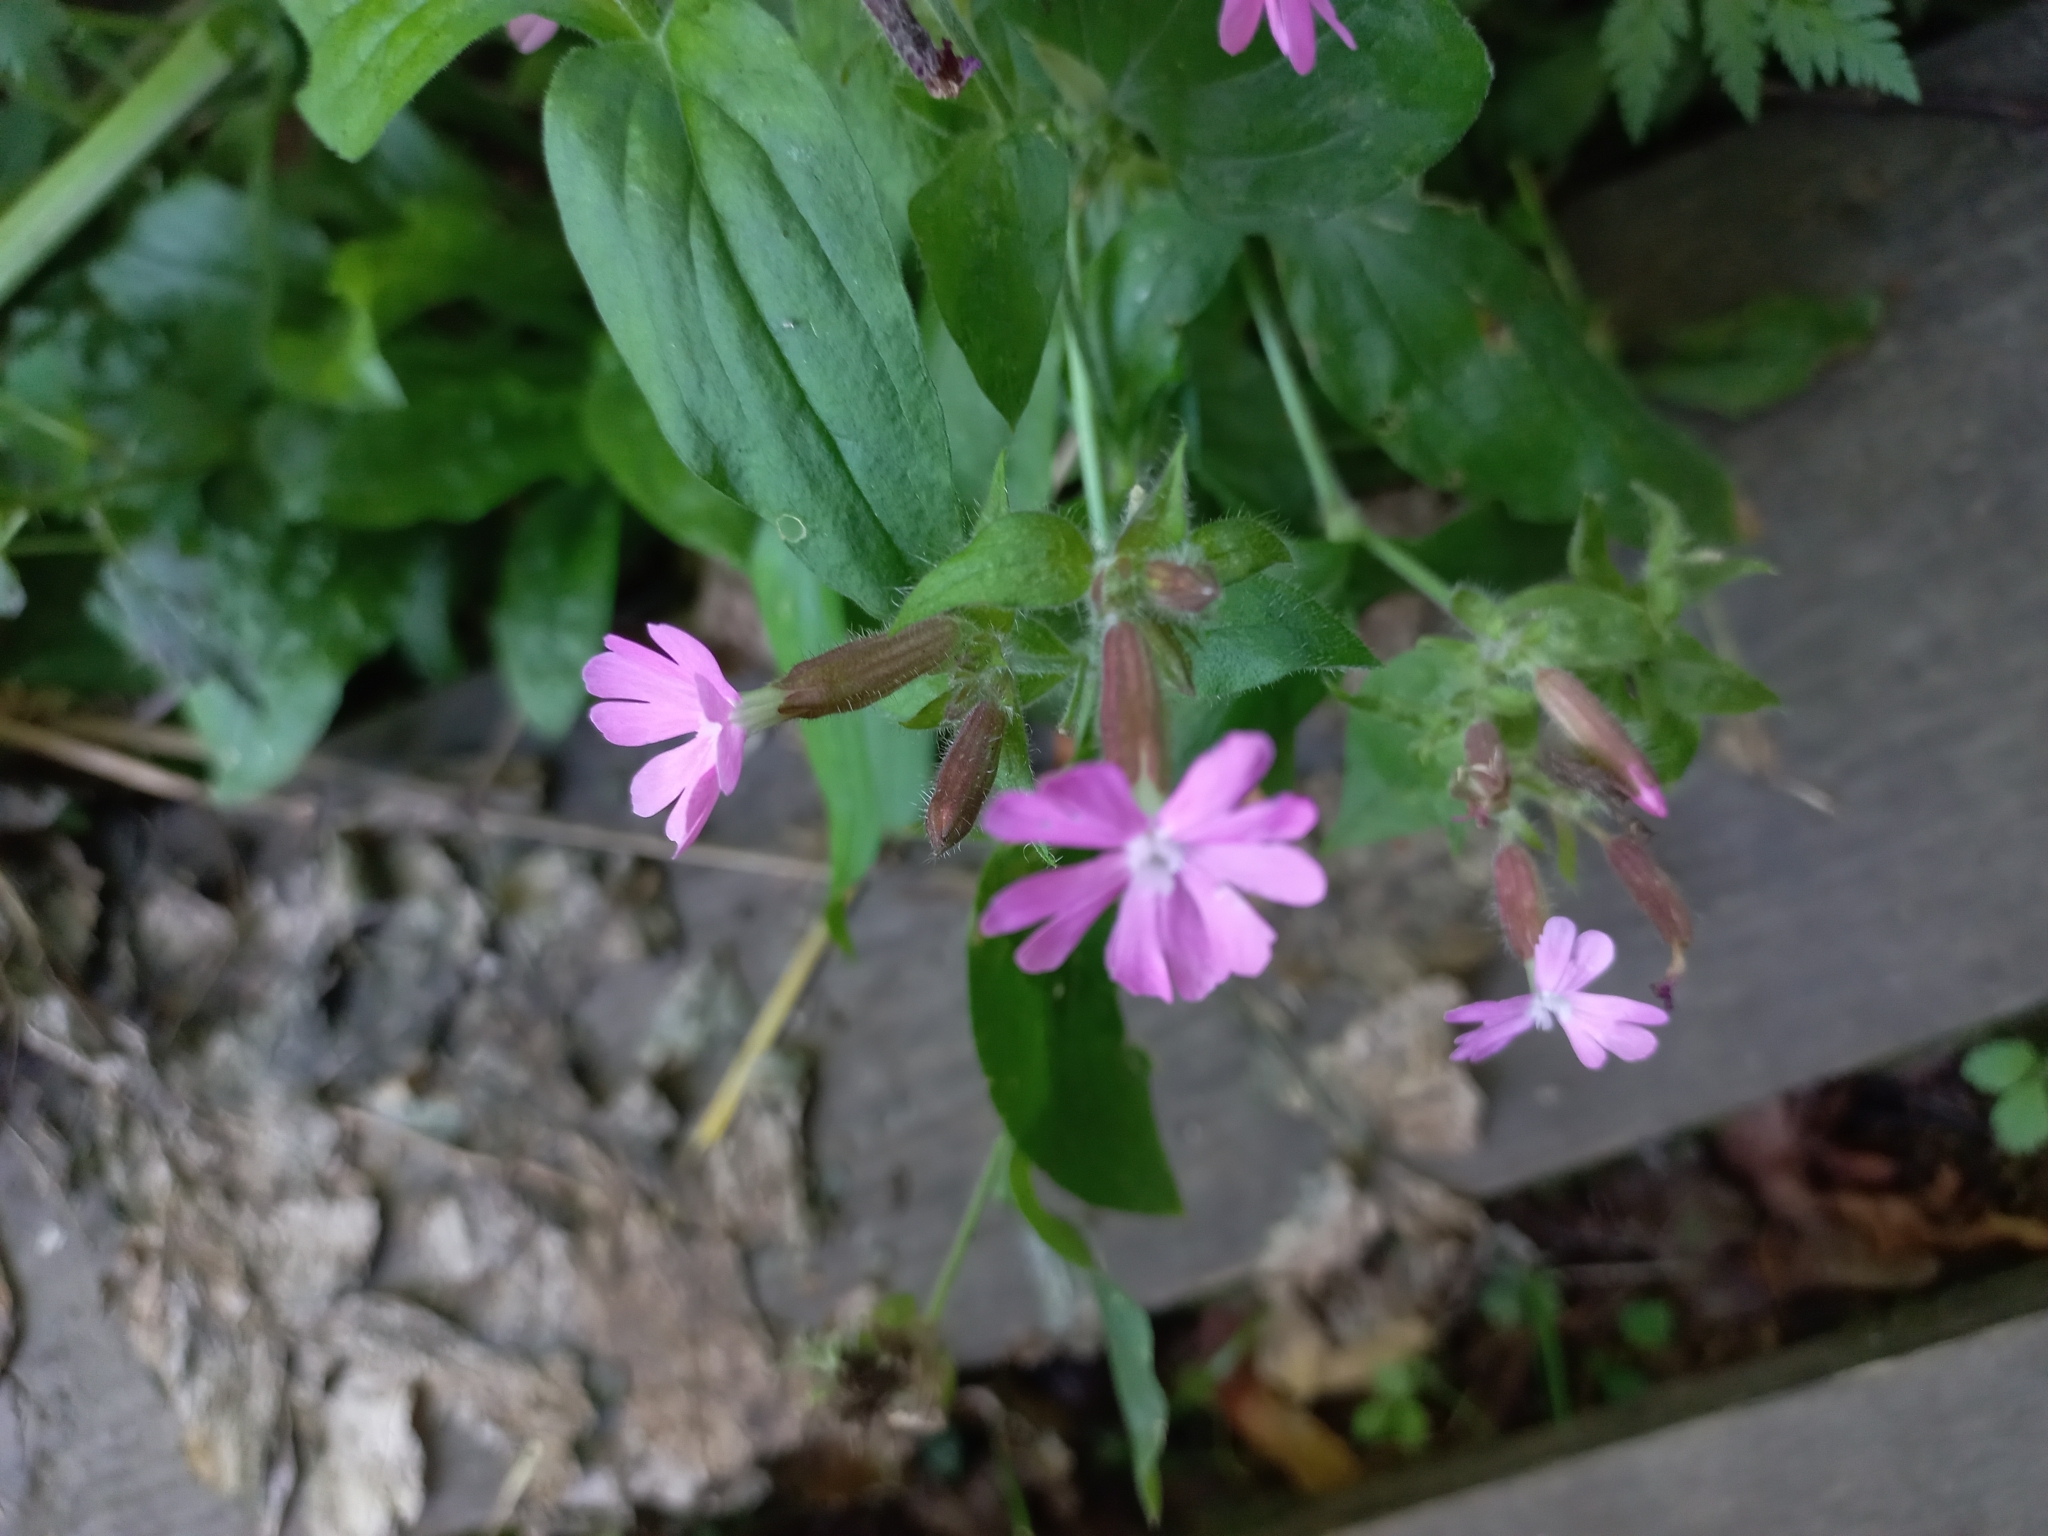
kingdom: Plantae
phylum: Tracheophyta
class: Magnoliopsida
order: Caryophyllales
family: Caryophyllaceae
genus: Silene
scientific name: Silene dioica
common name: Red campion
